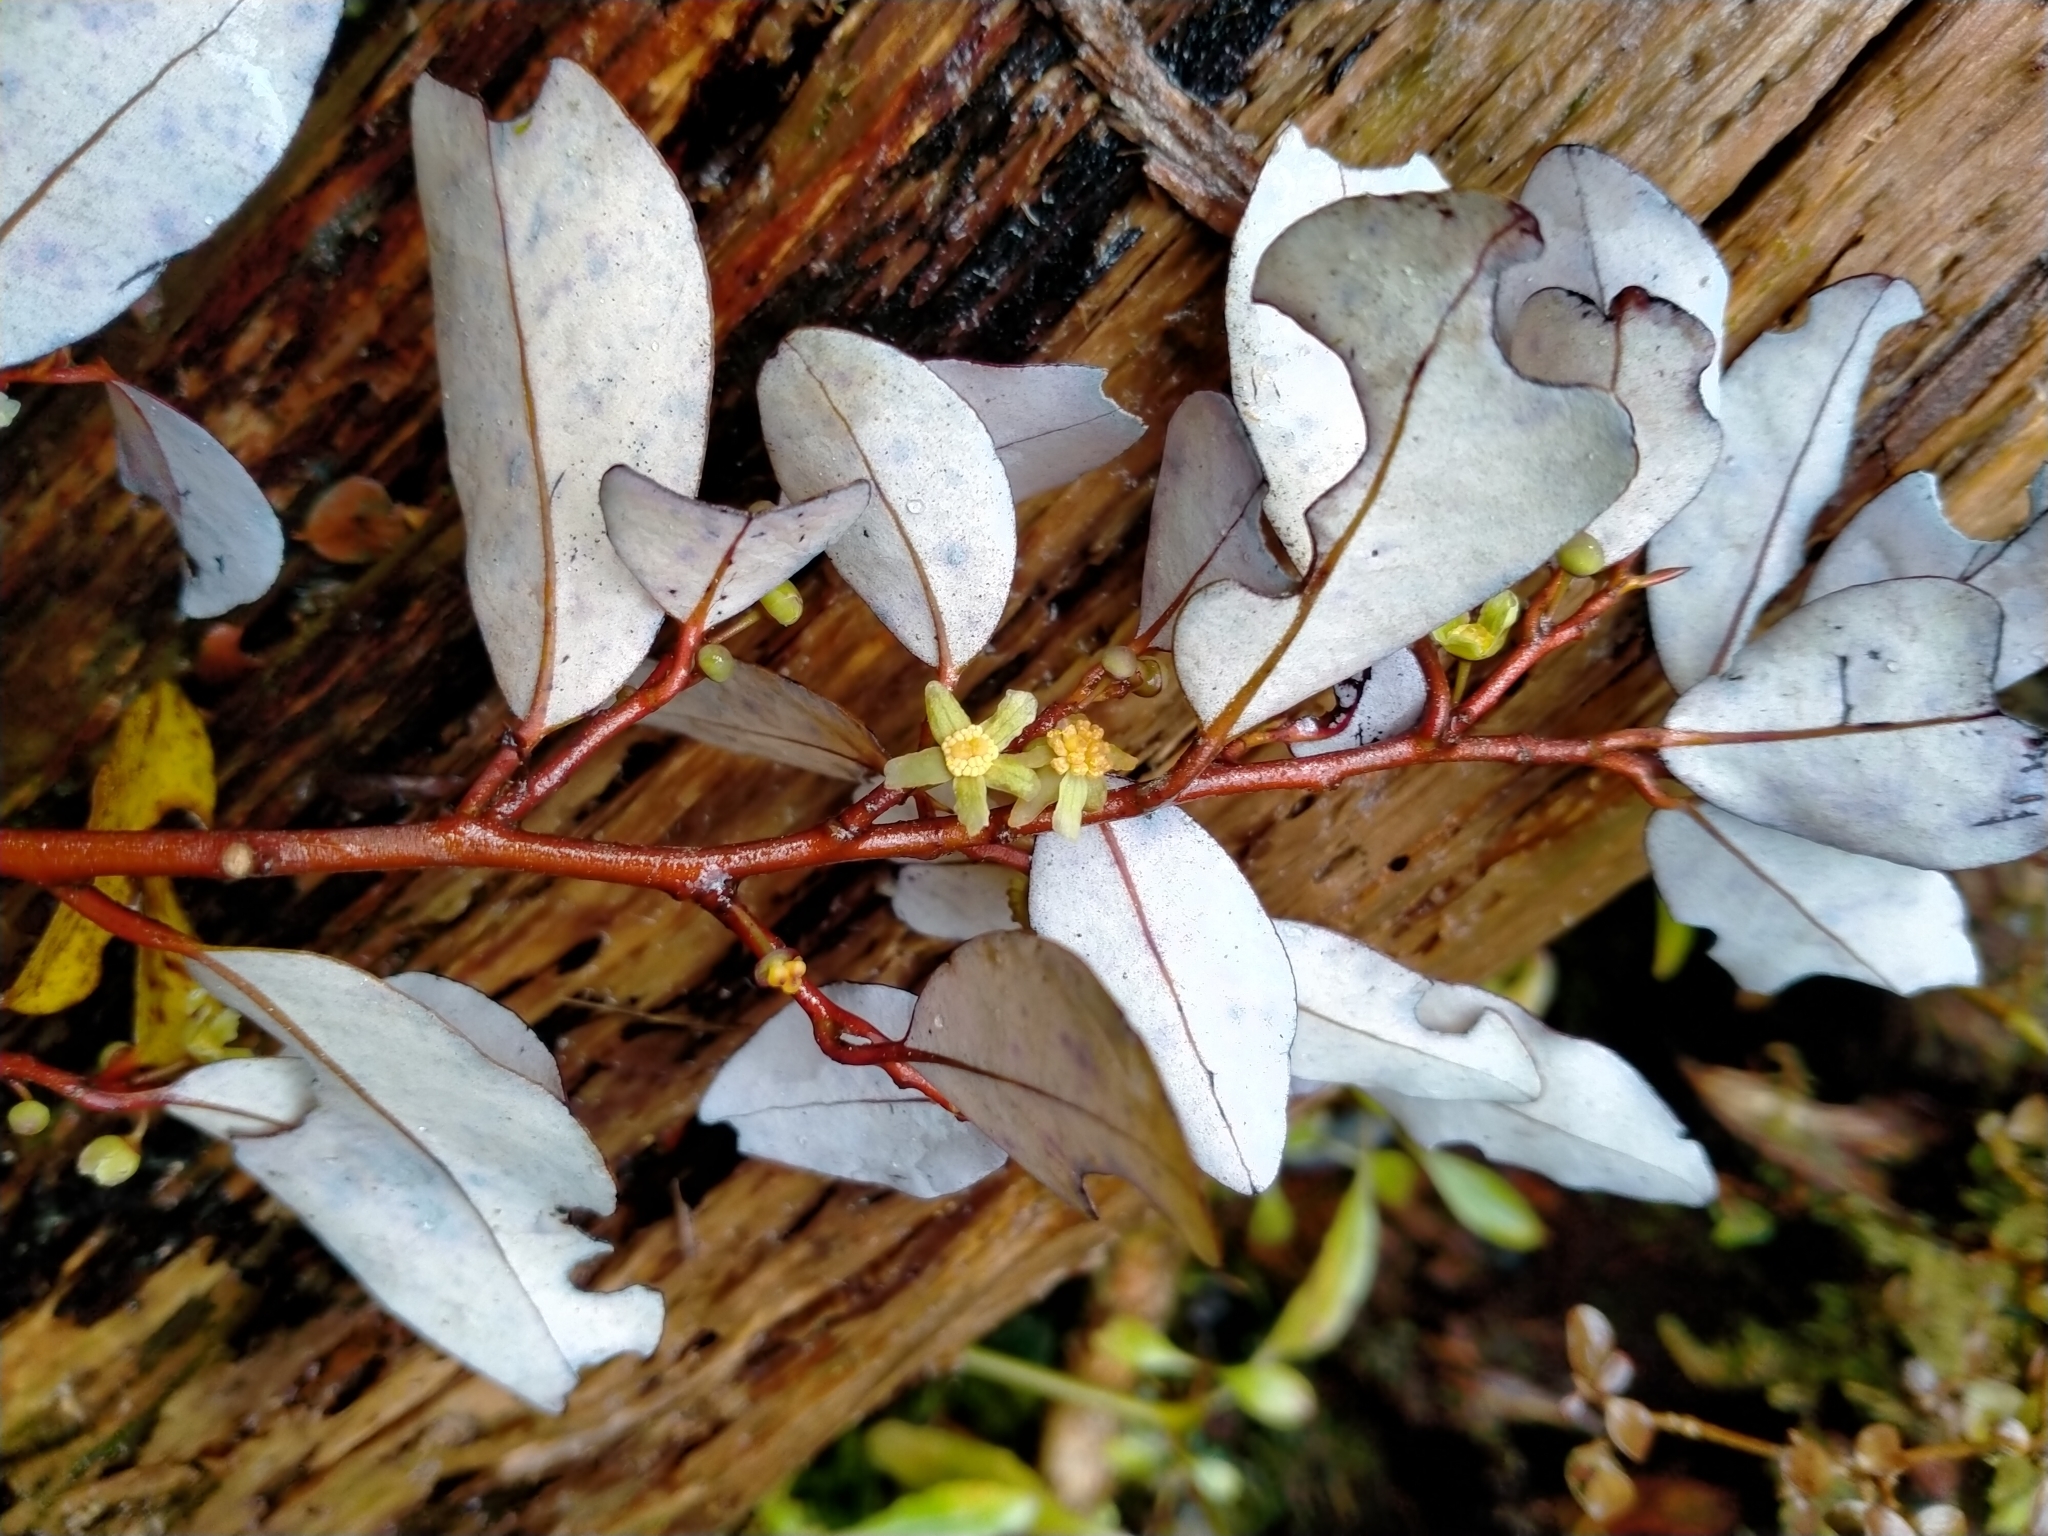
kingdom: Plantae
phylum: Tracheophyta
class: Magnoliopsida
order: Canellales
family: Winteraceae
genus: Pseudowintera
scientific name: Pseudowintera colorata
